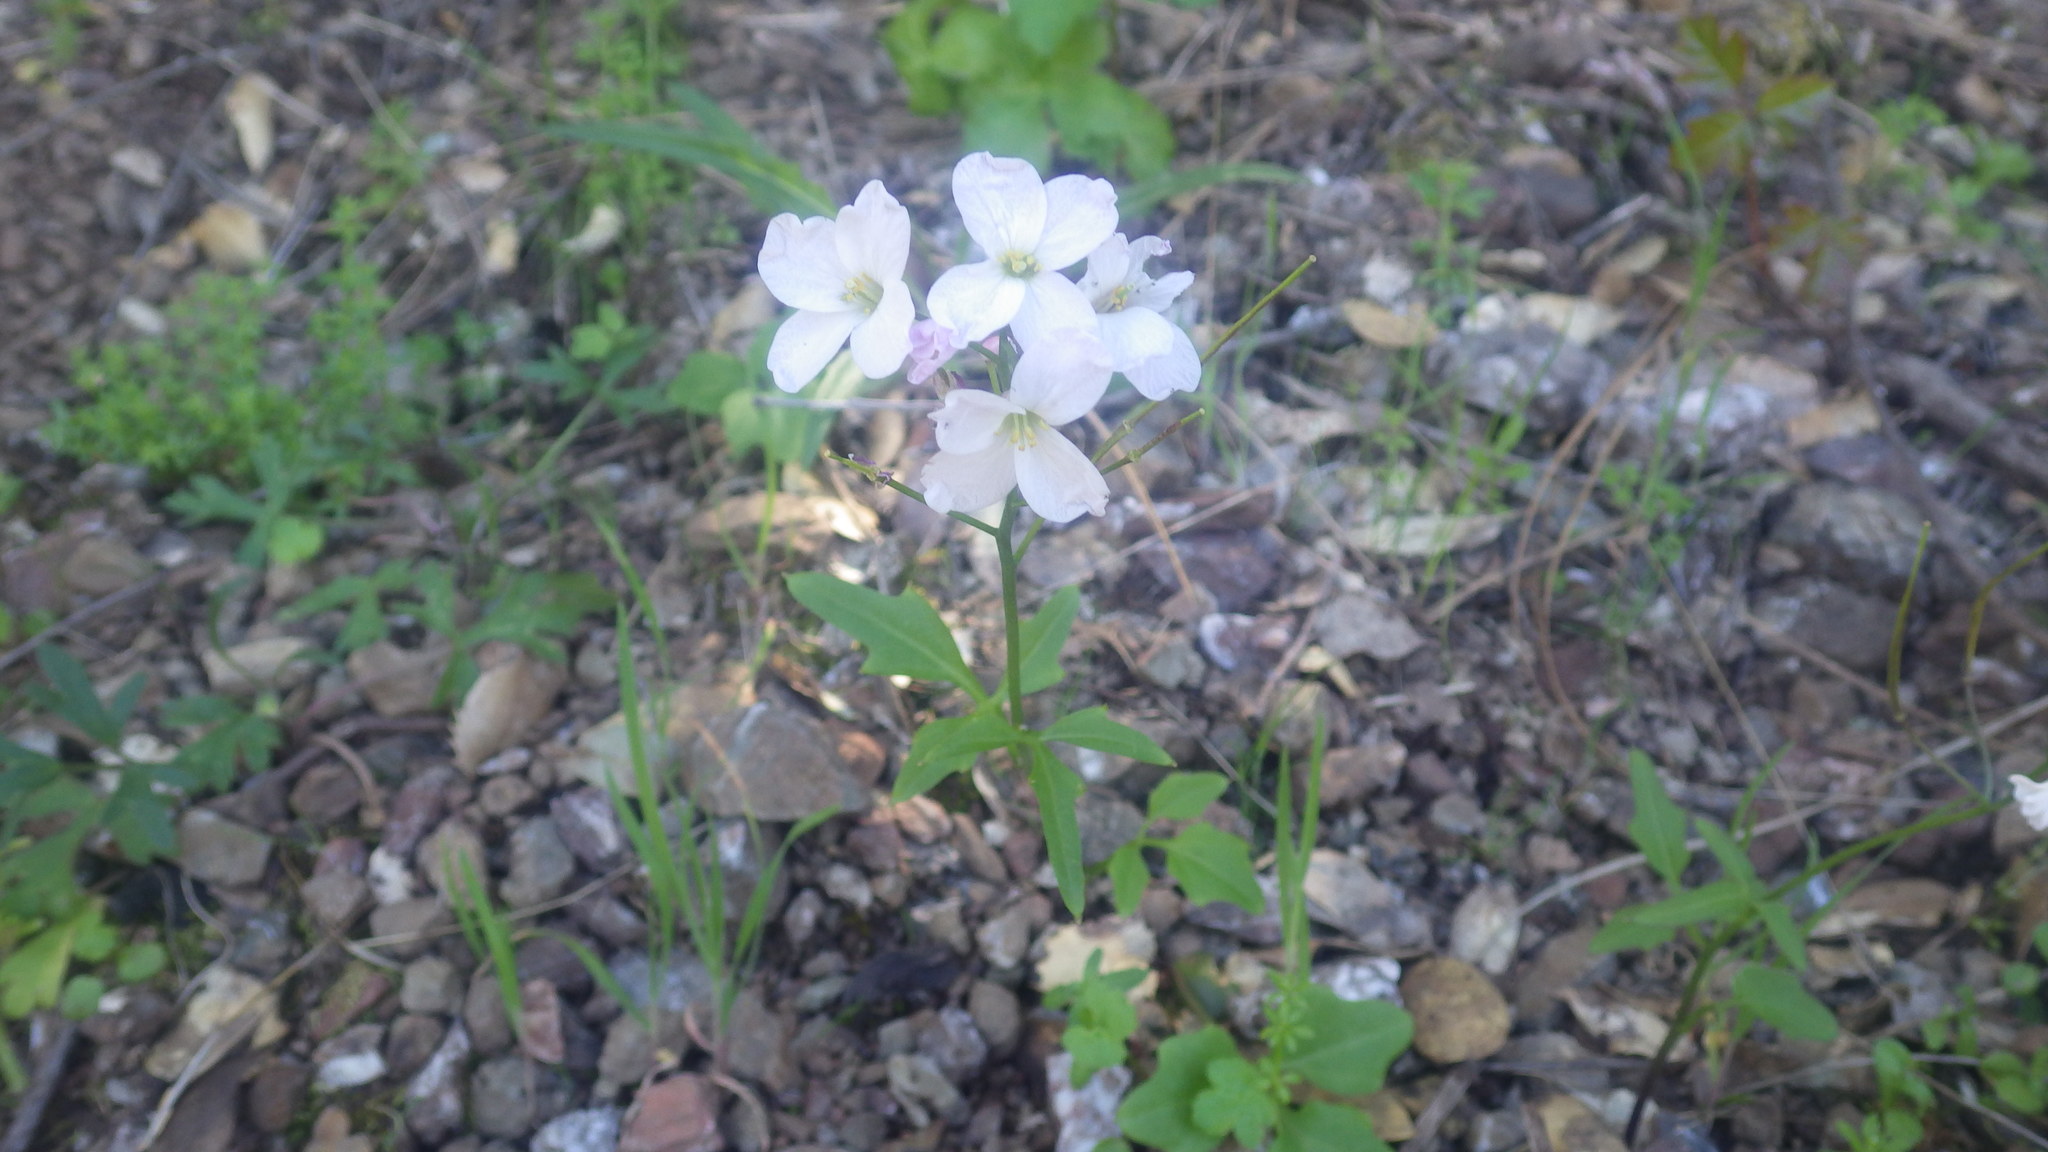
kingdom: Plantae
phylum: Tracheophyta
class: Magnoliopsida
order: Brassicales
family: Brassicaceae
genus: Cardamine
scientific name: Cardamine californica
